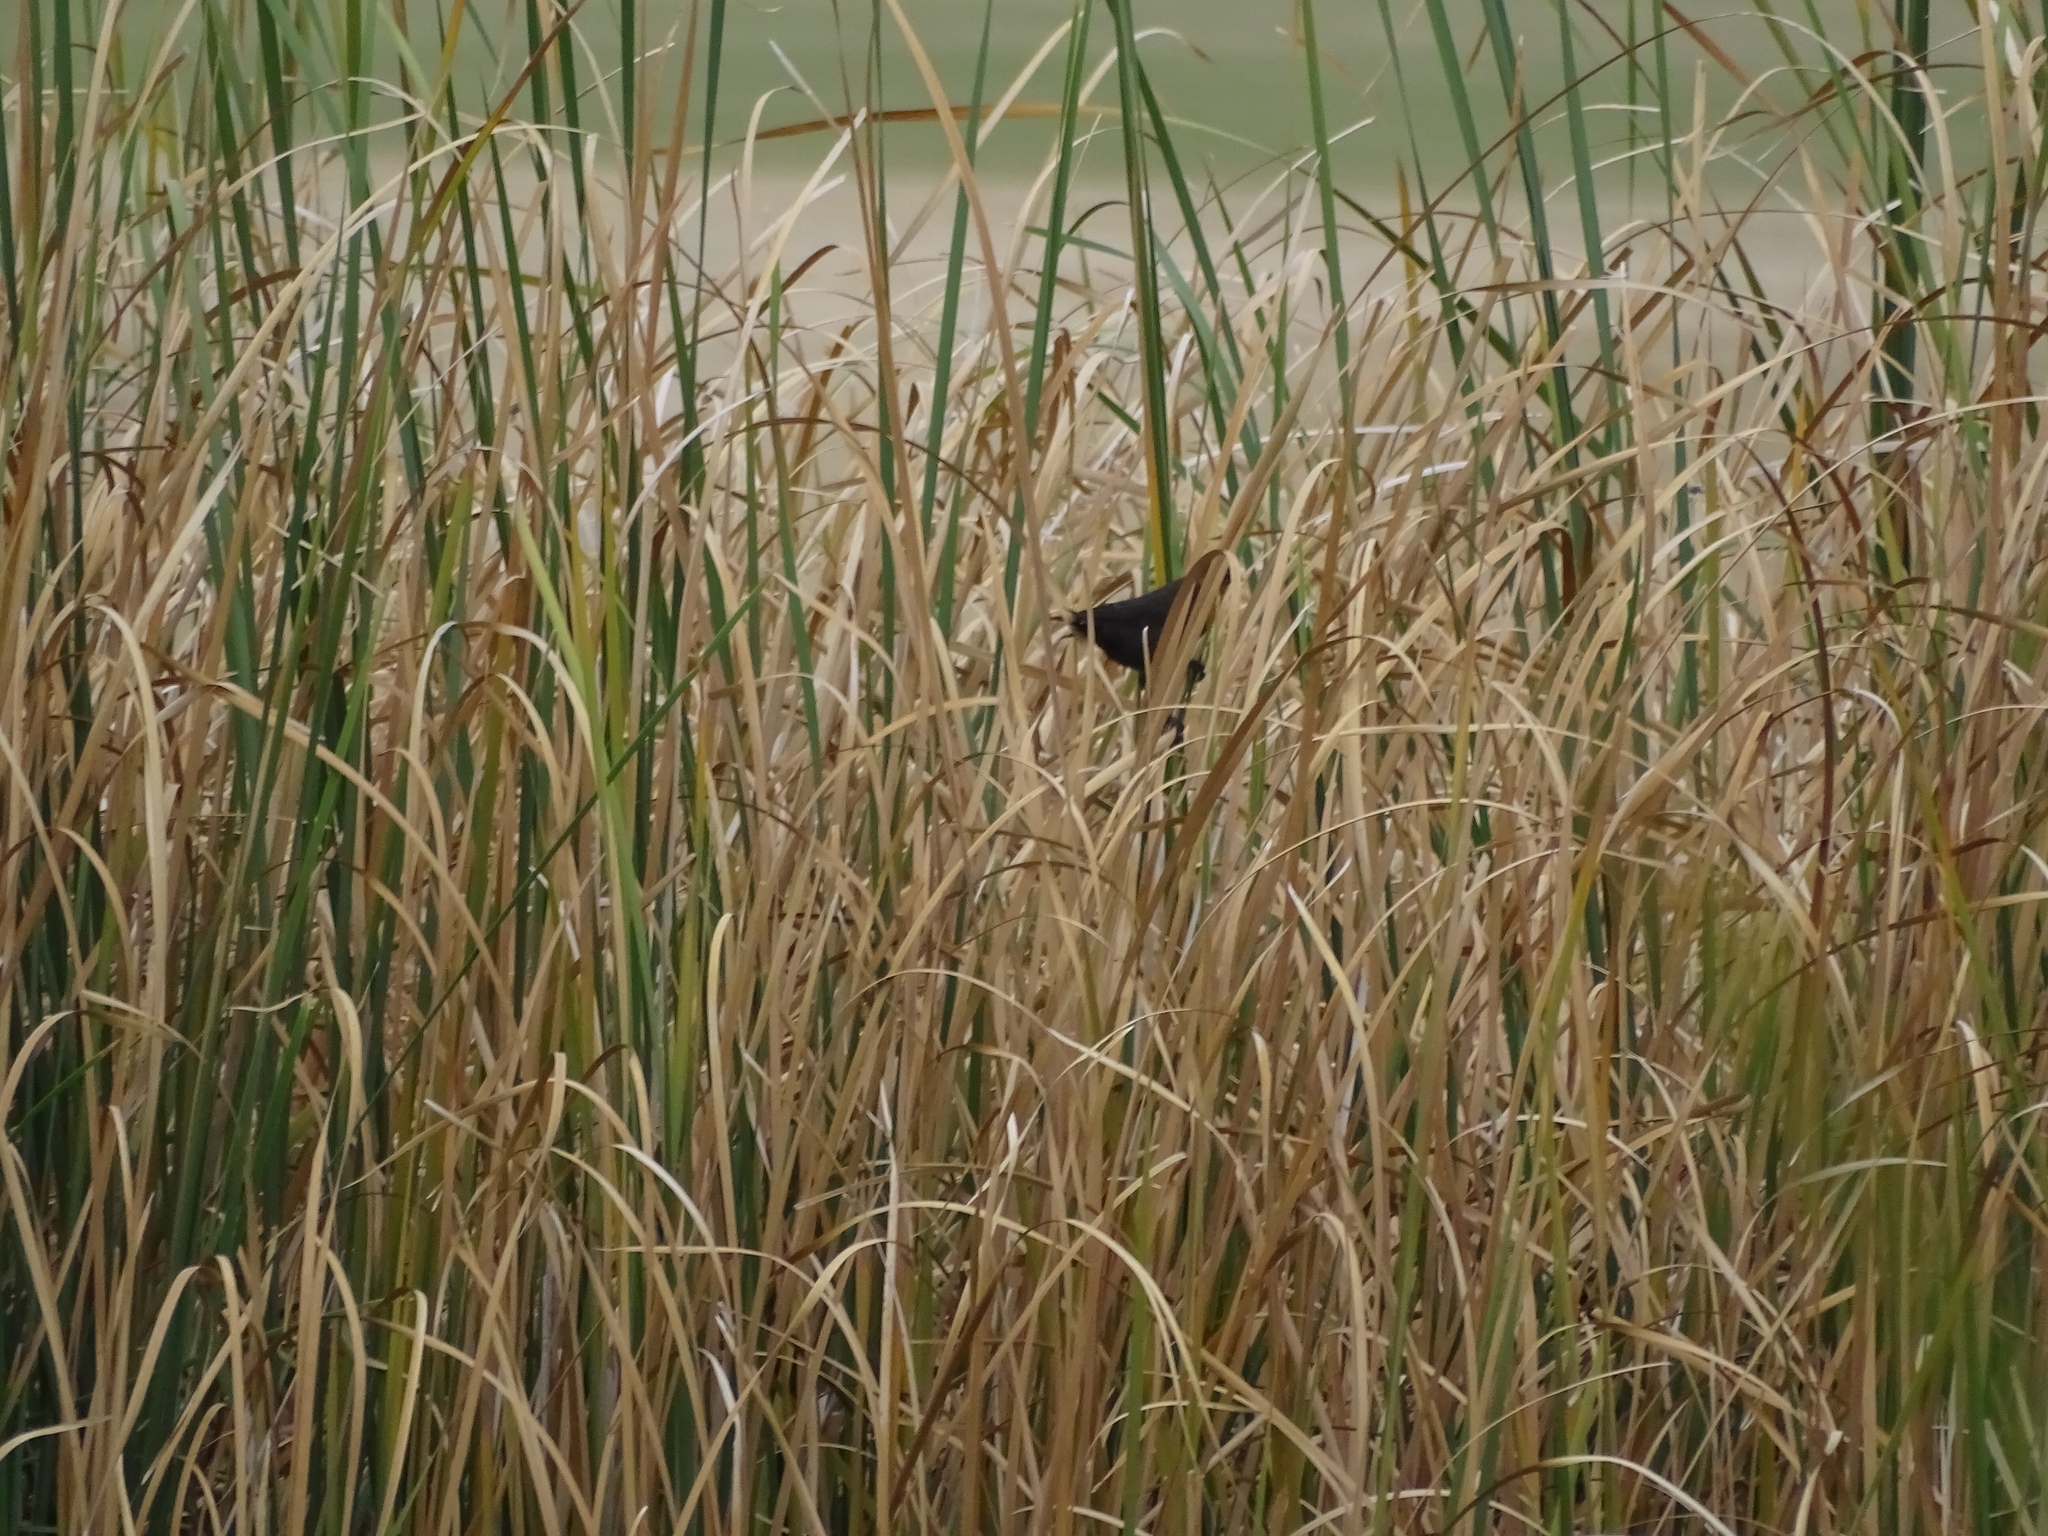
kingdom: Animalia
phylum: Chordata
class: Aves
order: Passeriformes
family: Icteridae
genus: Agelaius
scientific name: Agelaius phoeniceus
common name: Red-winged blackbird
